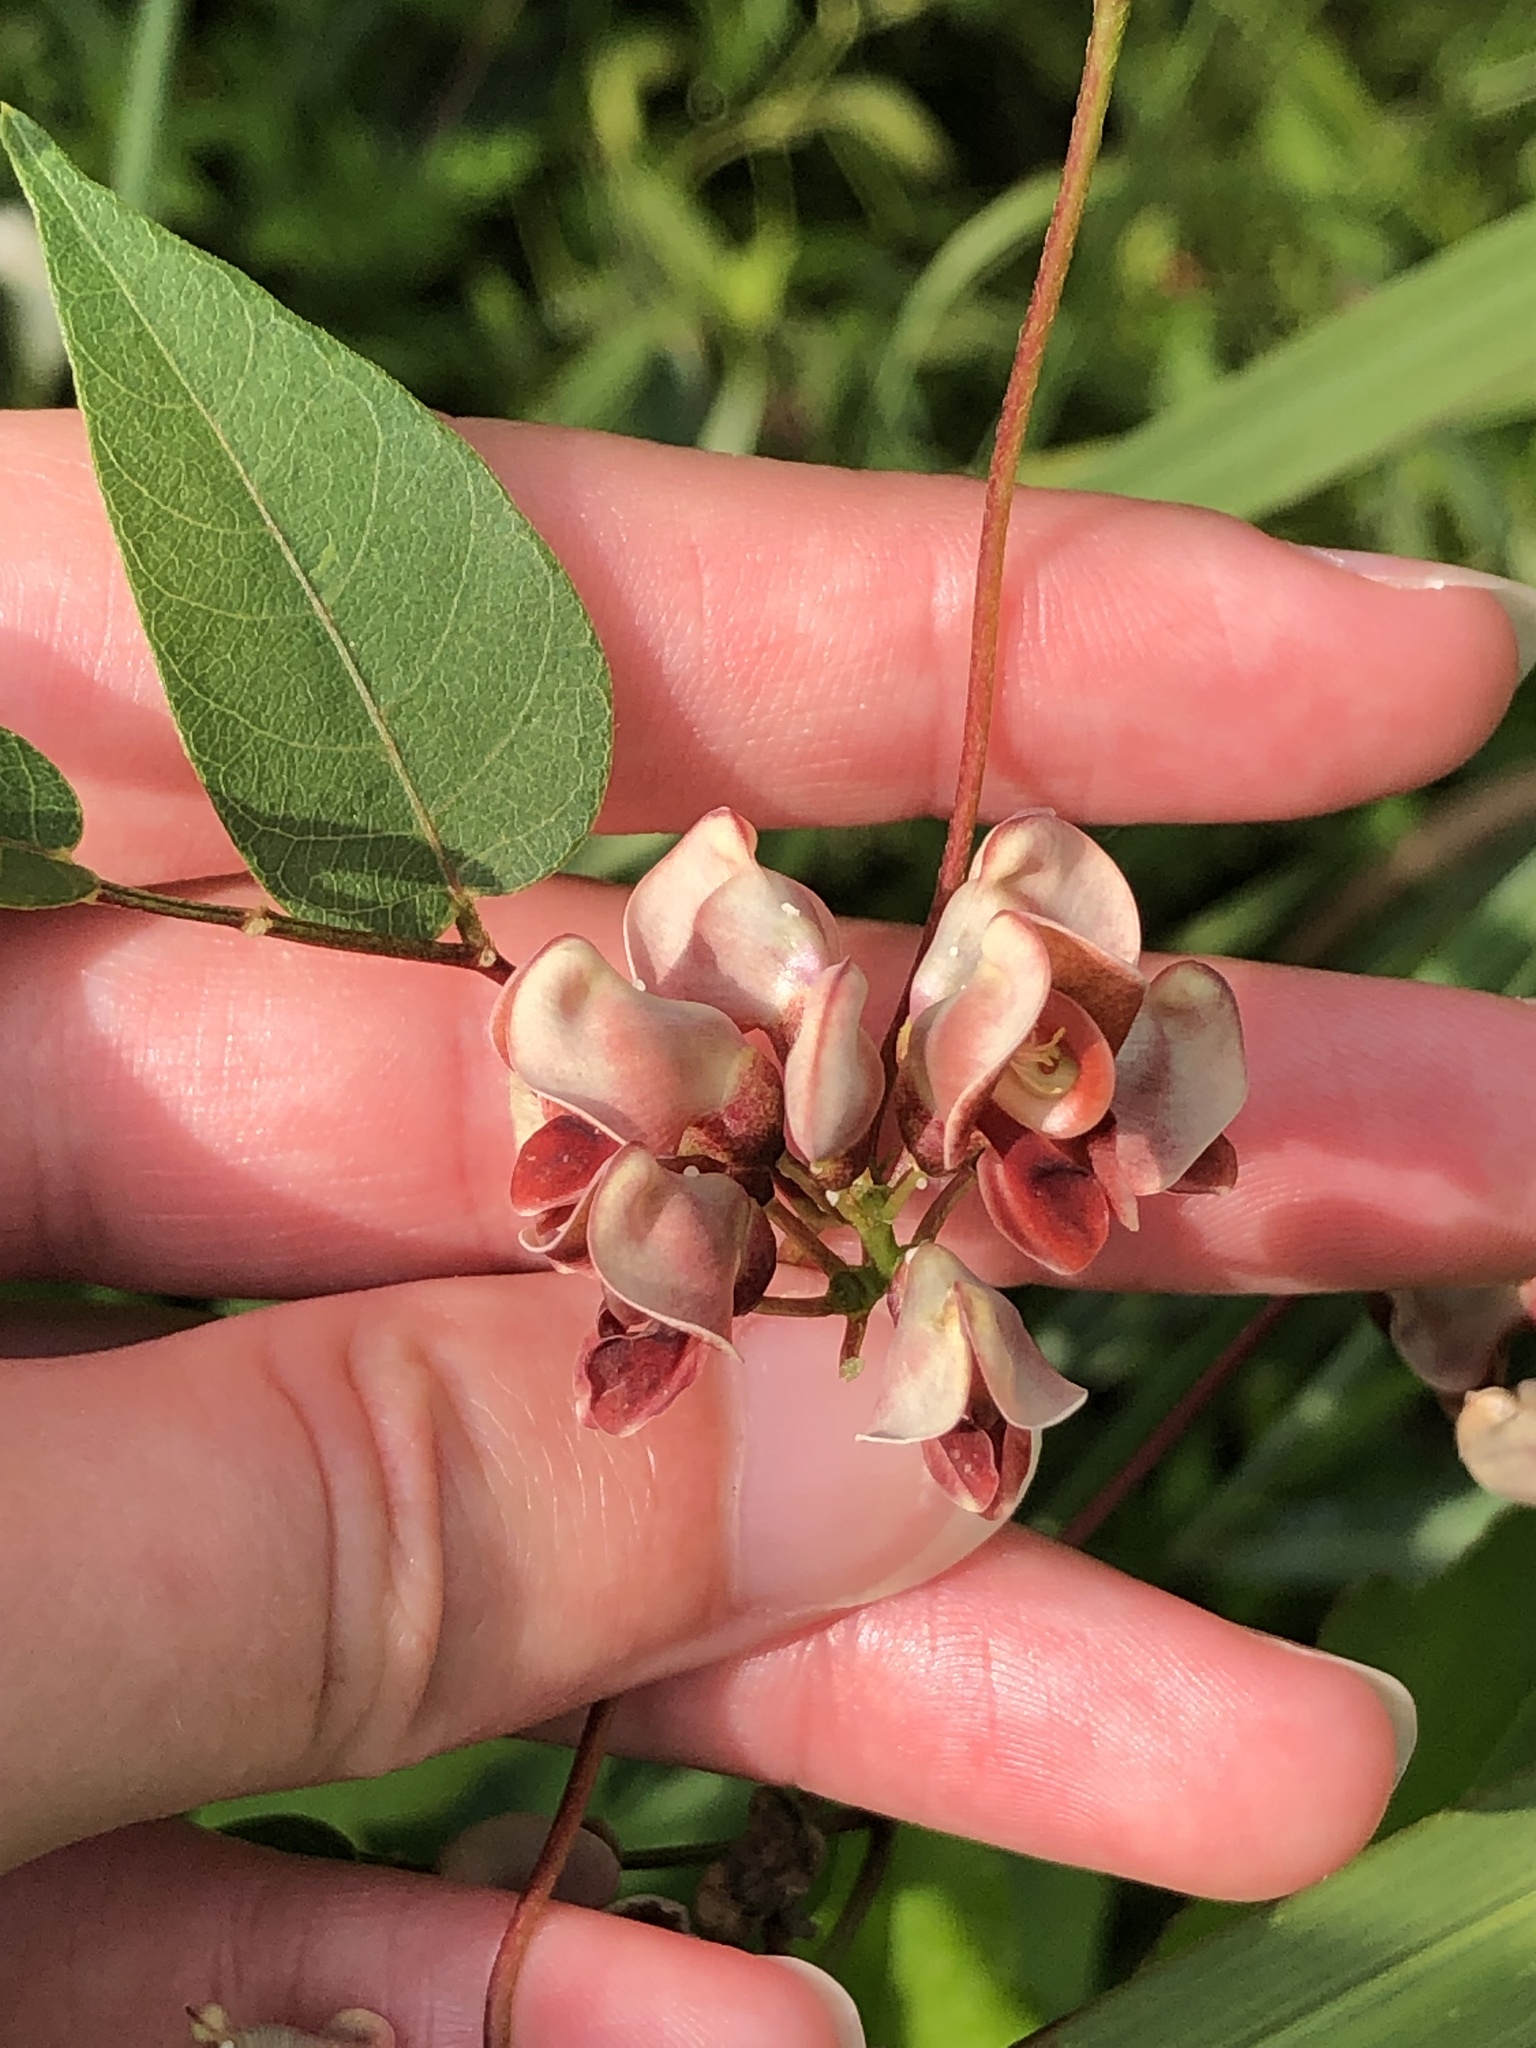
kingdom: Plantae
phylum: Tracheophyta
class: Magnoliopsida
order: Fabales
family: Fabaceae
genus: Apios
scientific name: Apios americana
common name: American potato-bean
